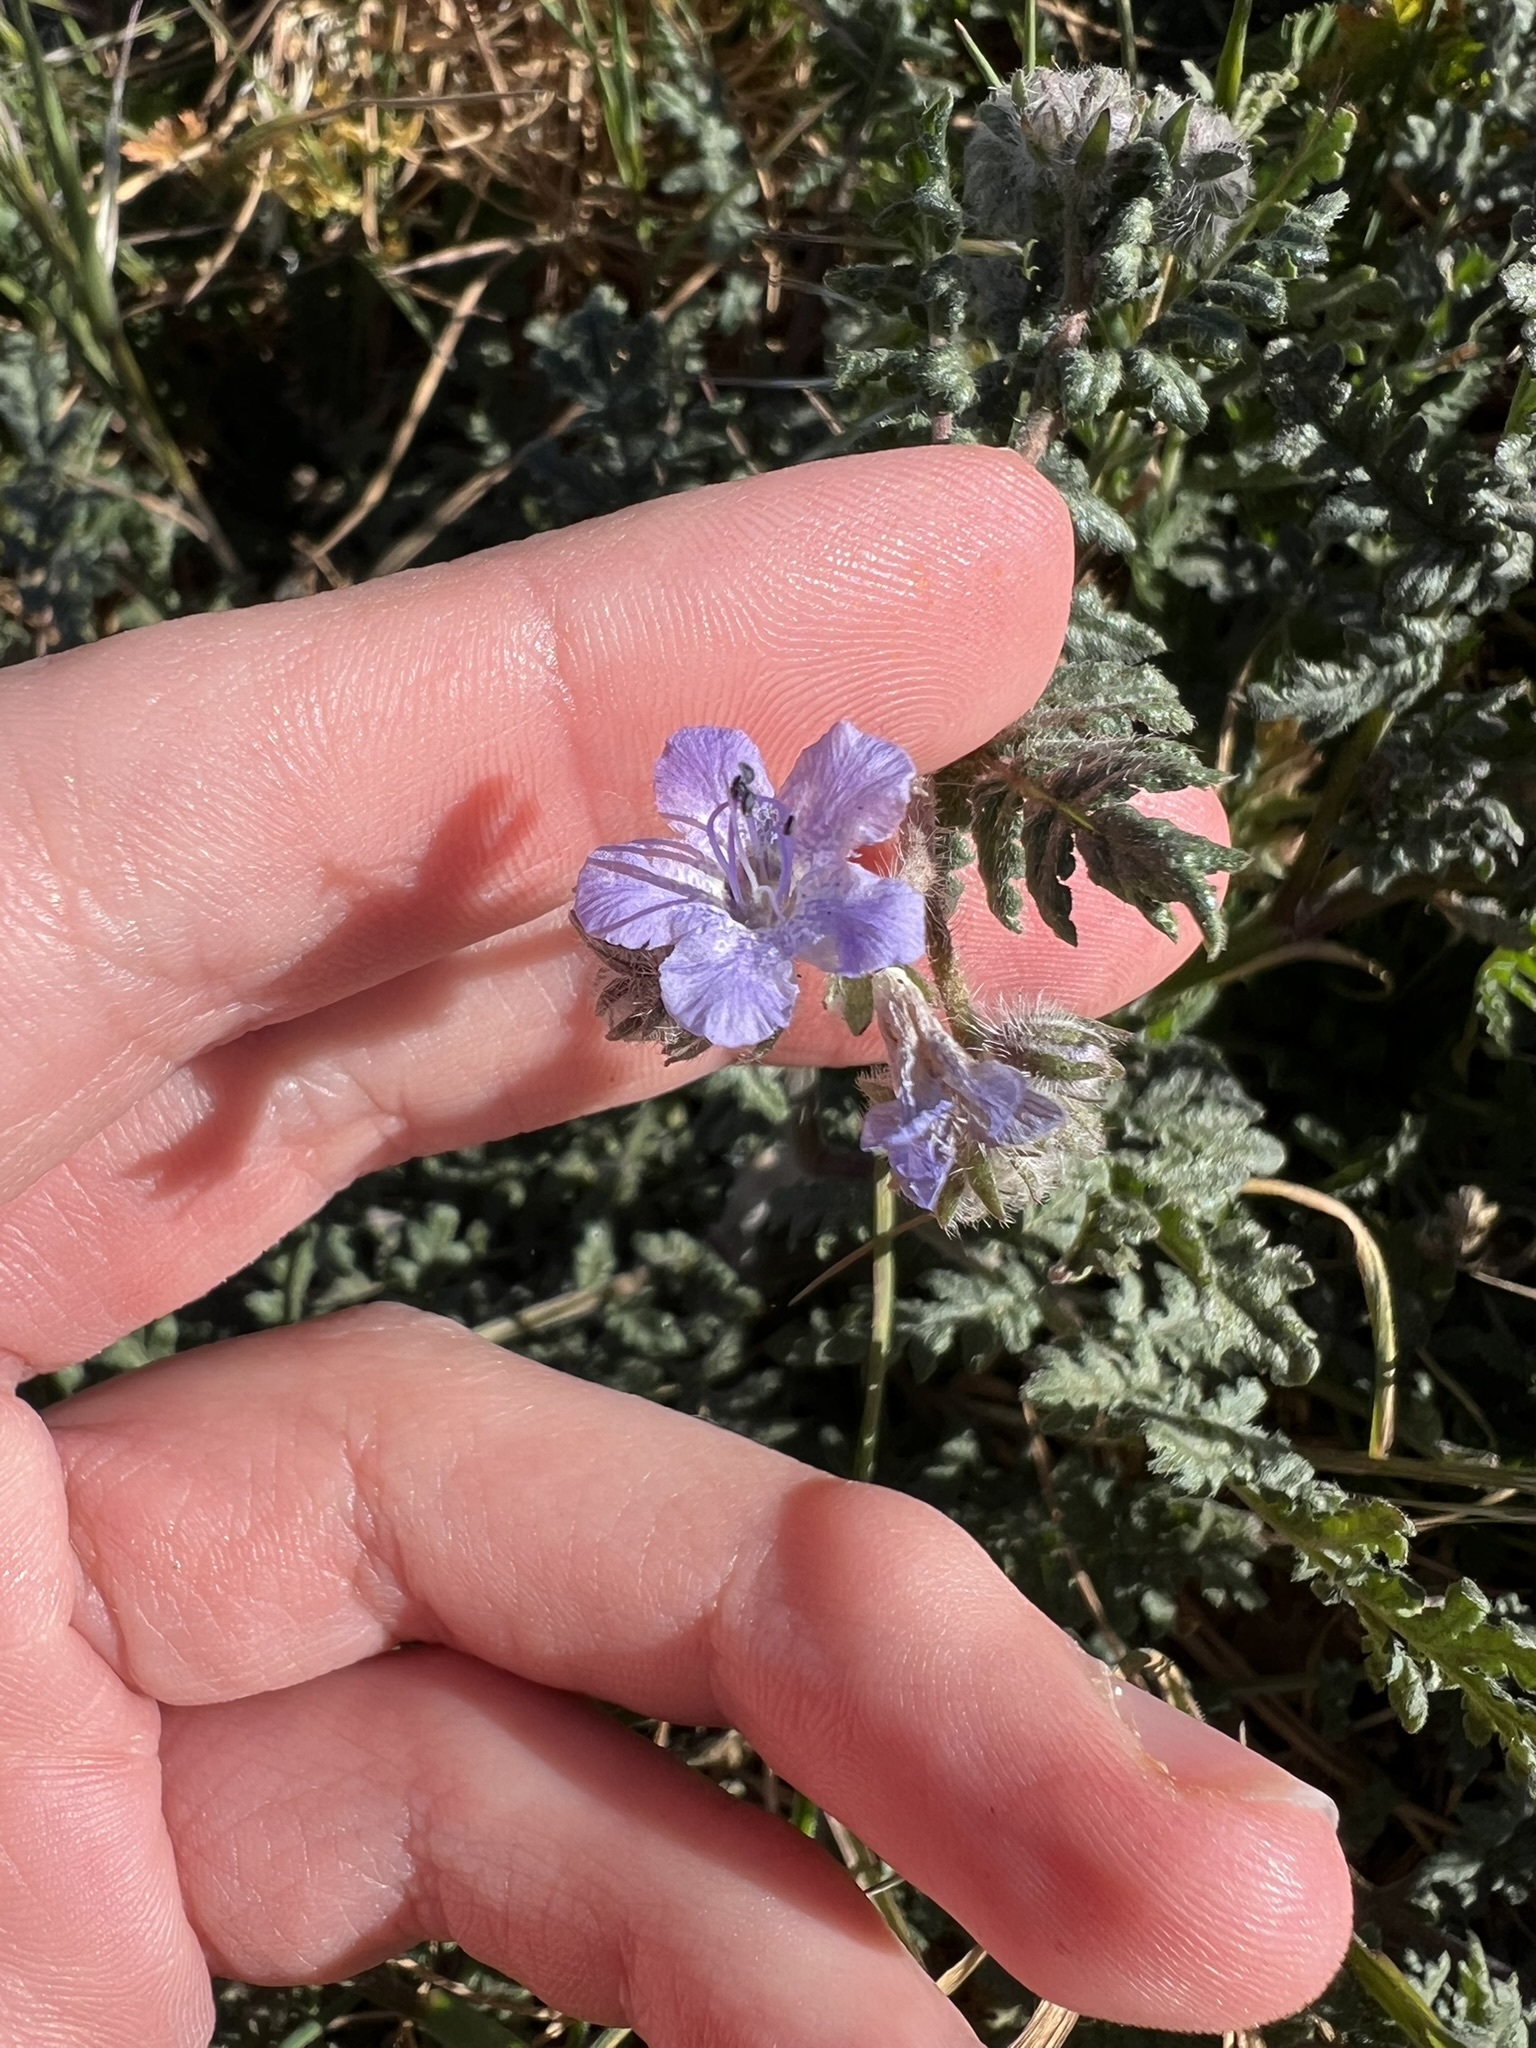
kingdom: Plantae
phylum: Tracheophyta
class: Magnoliopsida
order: Boraginales
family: Hydrophyllaceae
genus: Phacelia
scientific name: Phacelia distans
